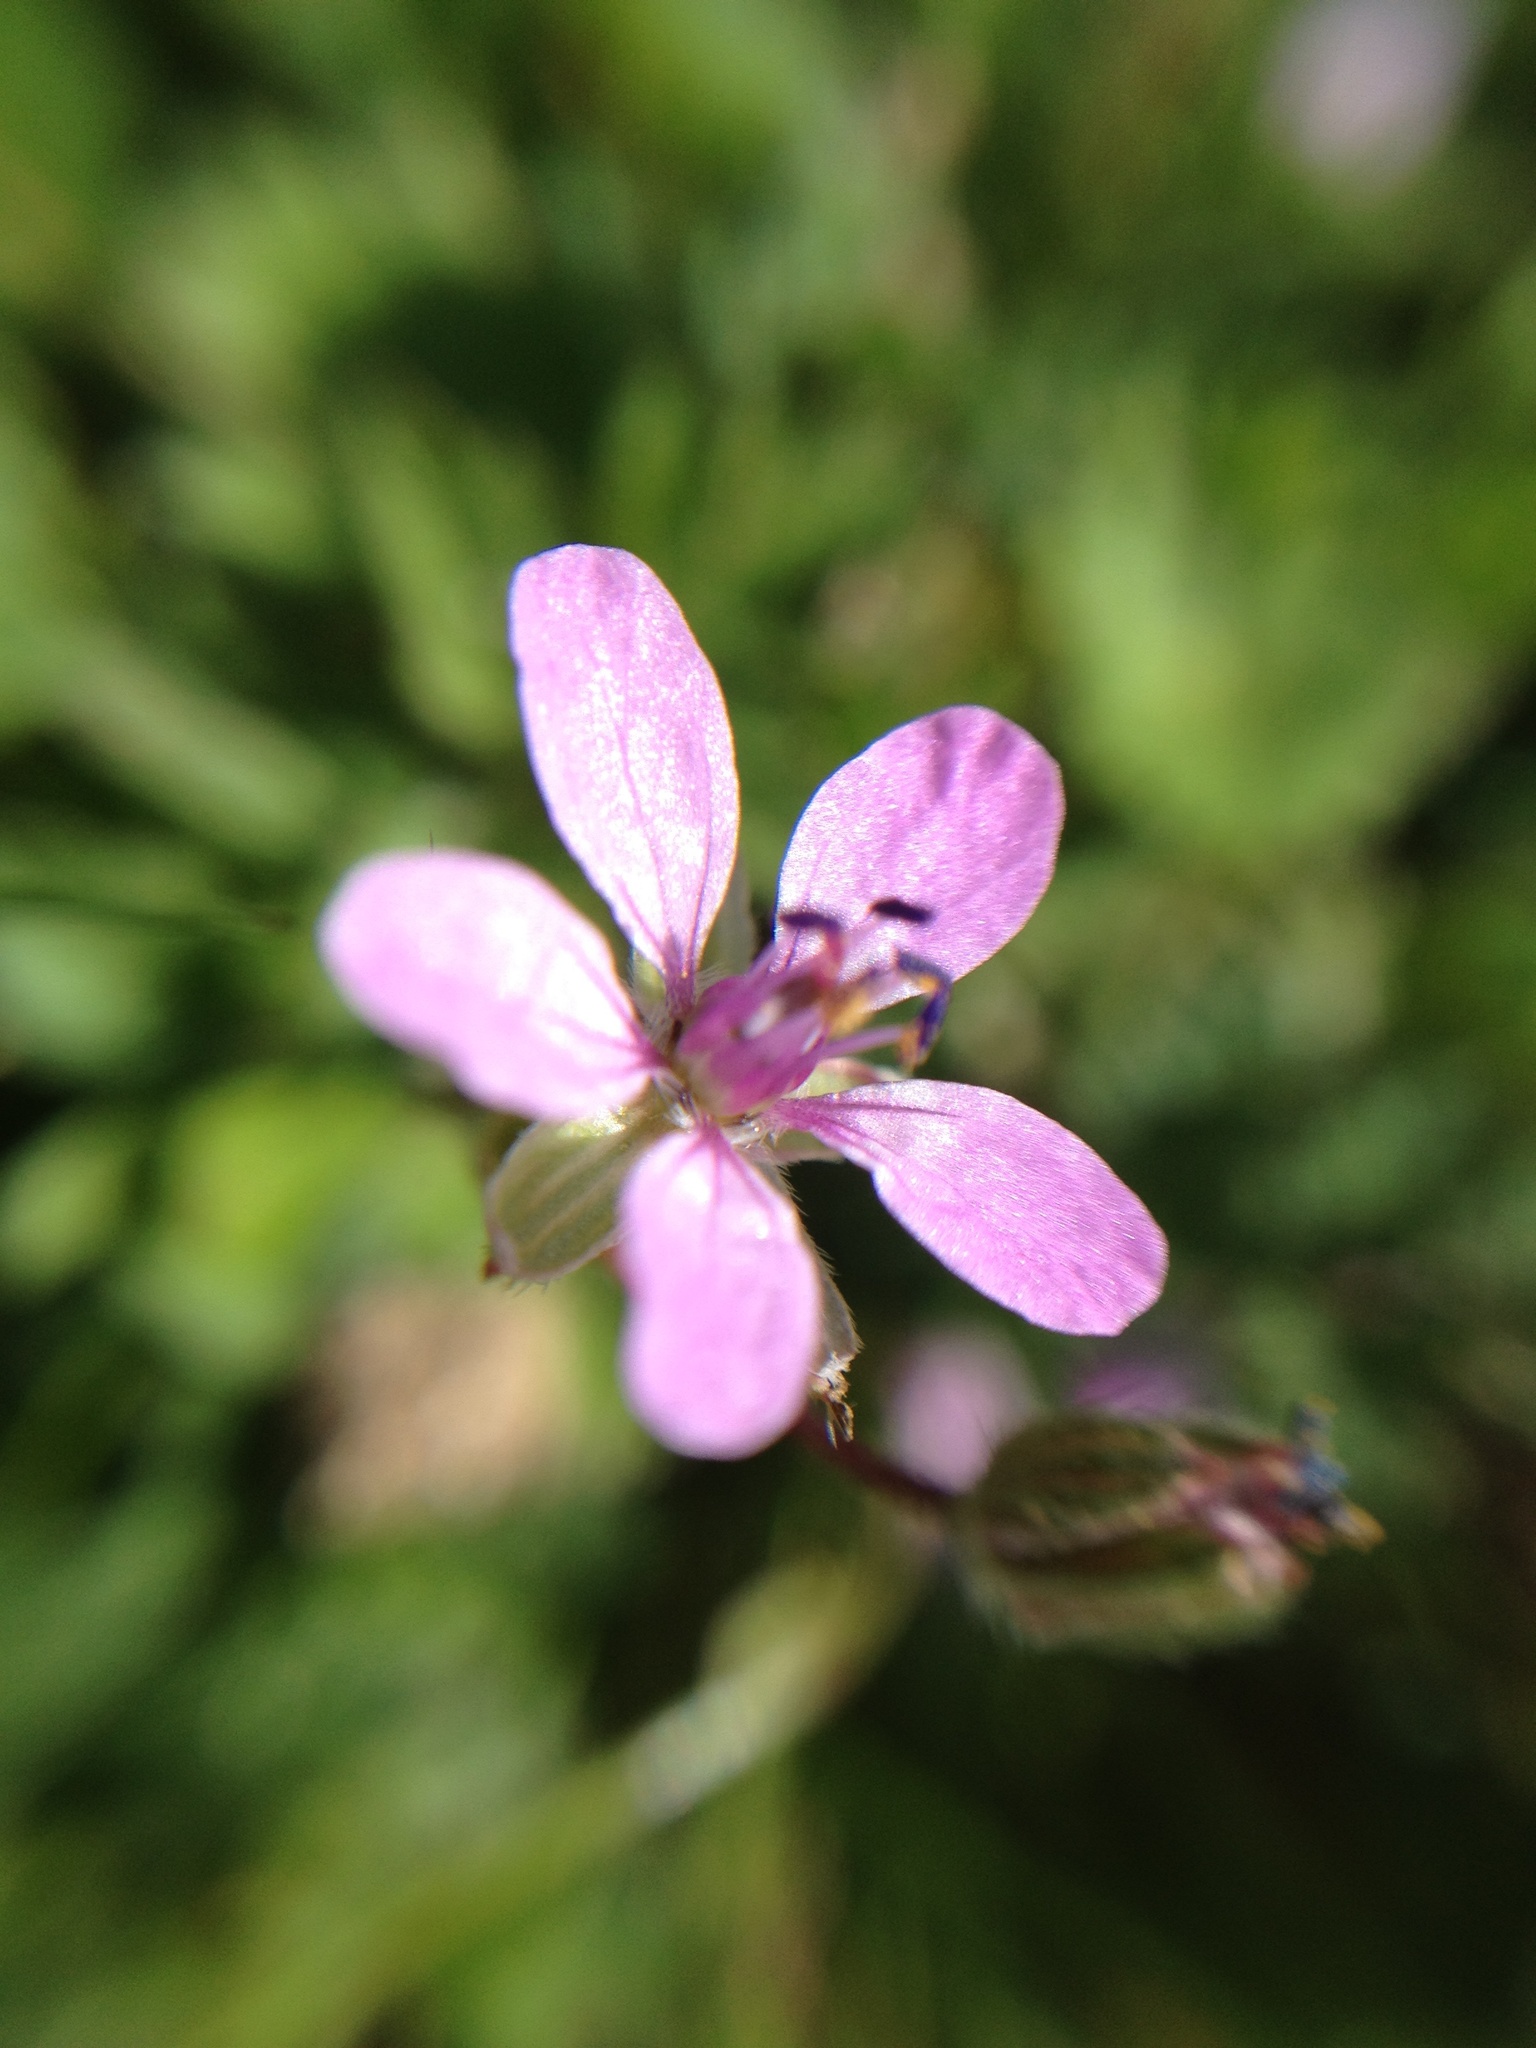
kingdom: Plantae
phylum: Tracheophyta
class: Magnoliopsida
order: Geraniales
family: Geraniaceae
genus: Erodium
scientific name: Erodium cicutarium
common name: Common stork's-bill
